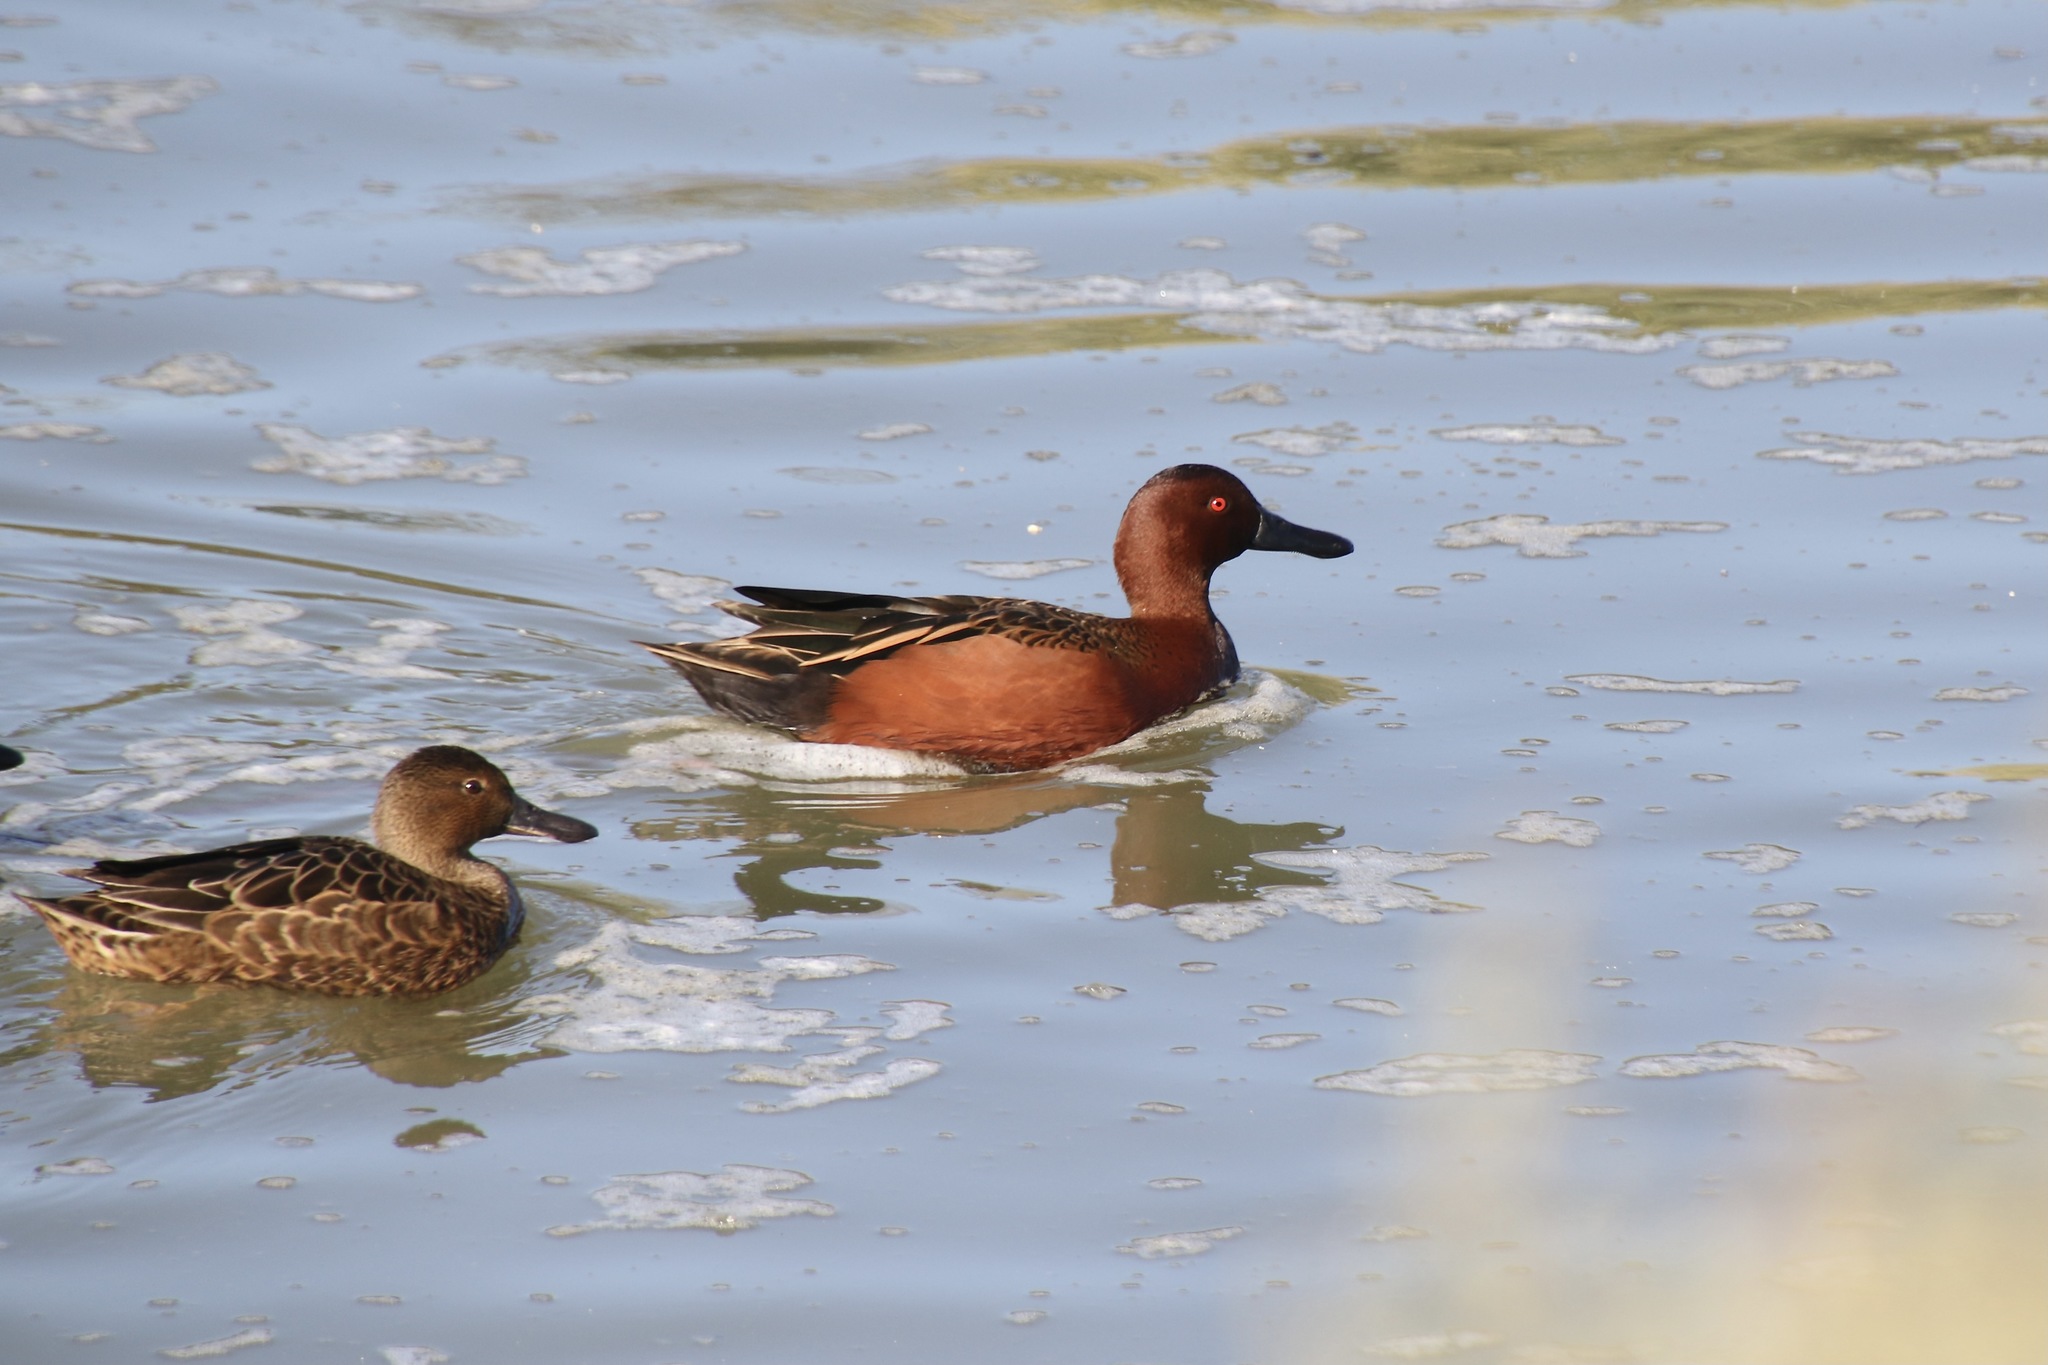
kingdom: Animalia
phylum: Chordata
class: Aves
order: Anseriformes
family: Anatidae
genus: Spatula
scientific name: Spatula cyanoptera
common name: Cinnamon teal
